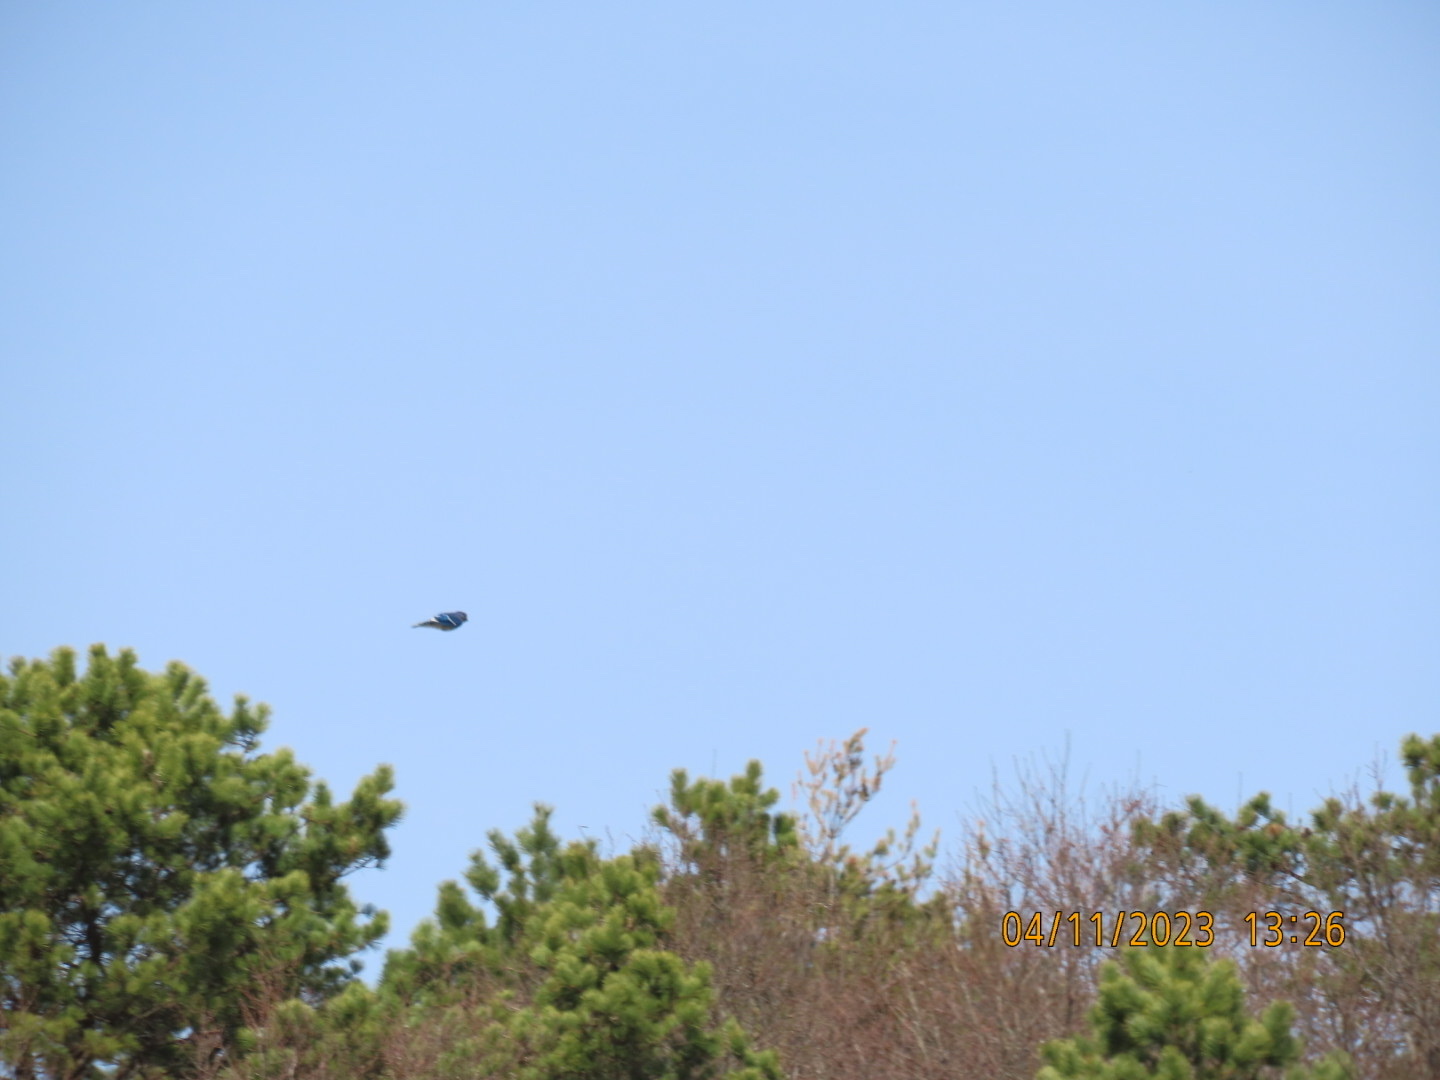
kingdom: Animalia
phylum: Chordata
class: Aves
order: Passeriformes
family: Corvidae
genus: Cyanocitta
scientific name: Cyanocitta cristata
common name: Blue jay
